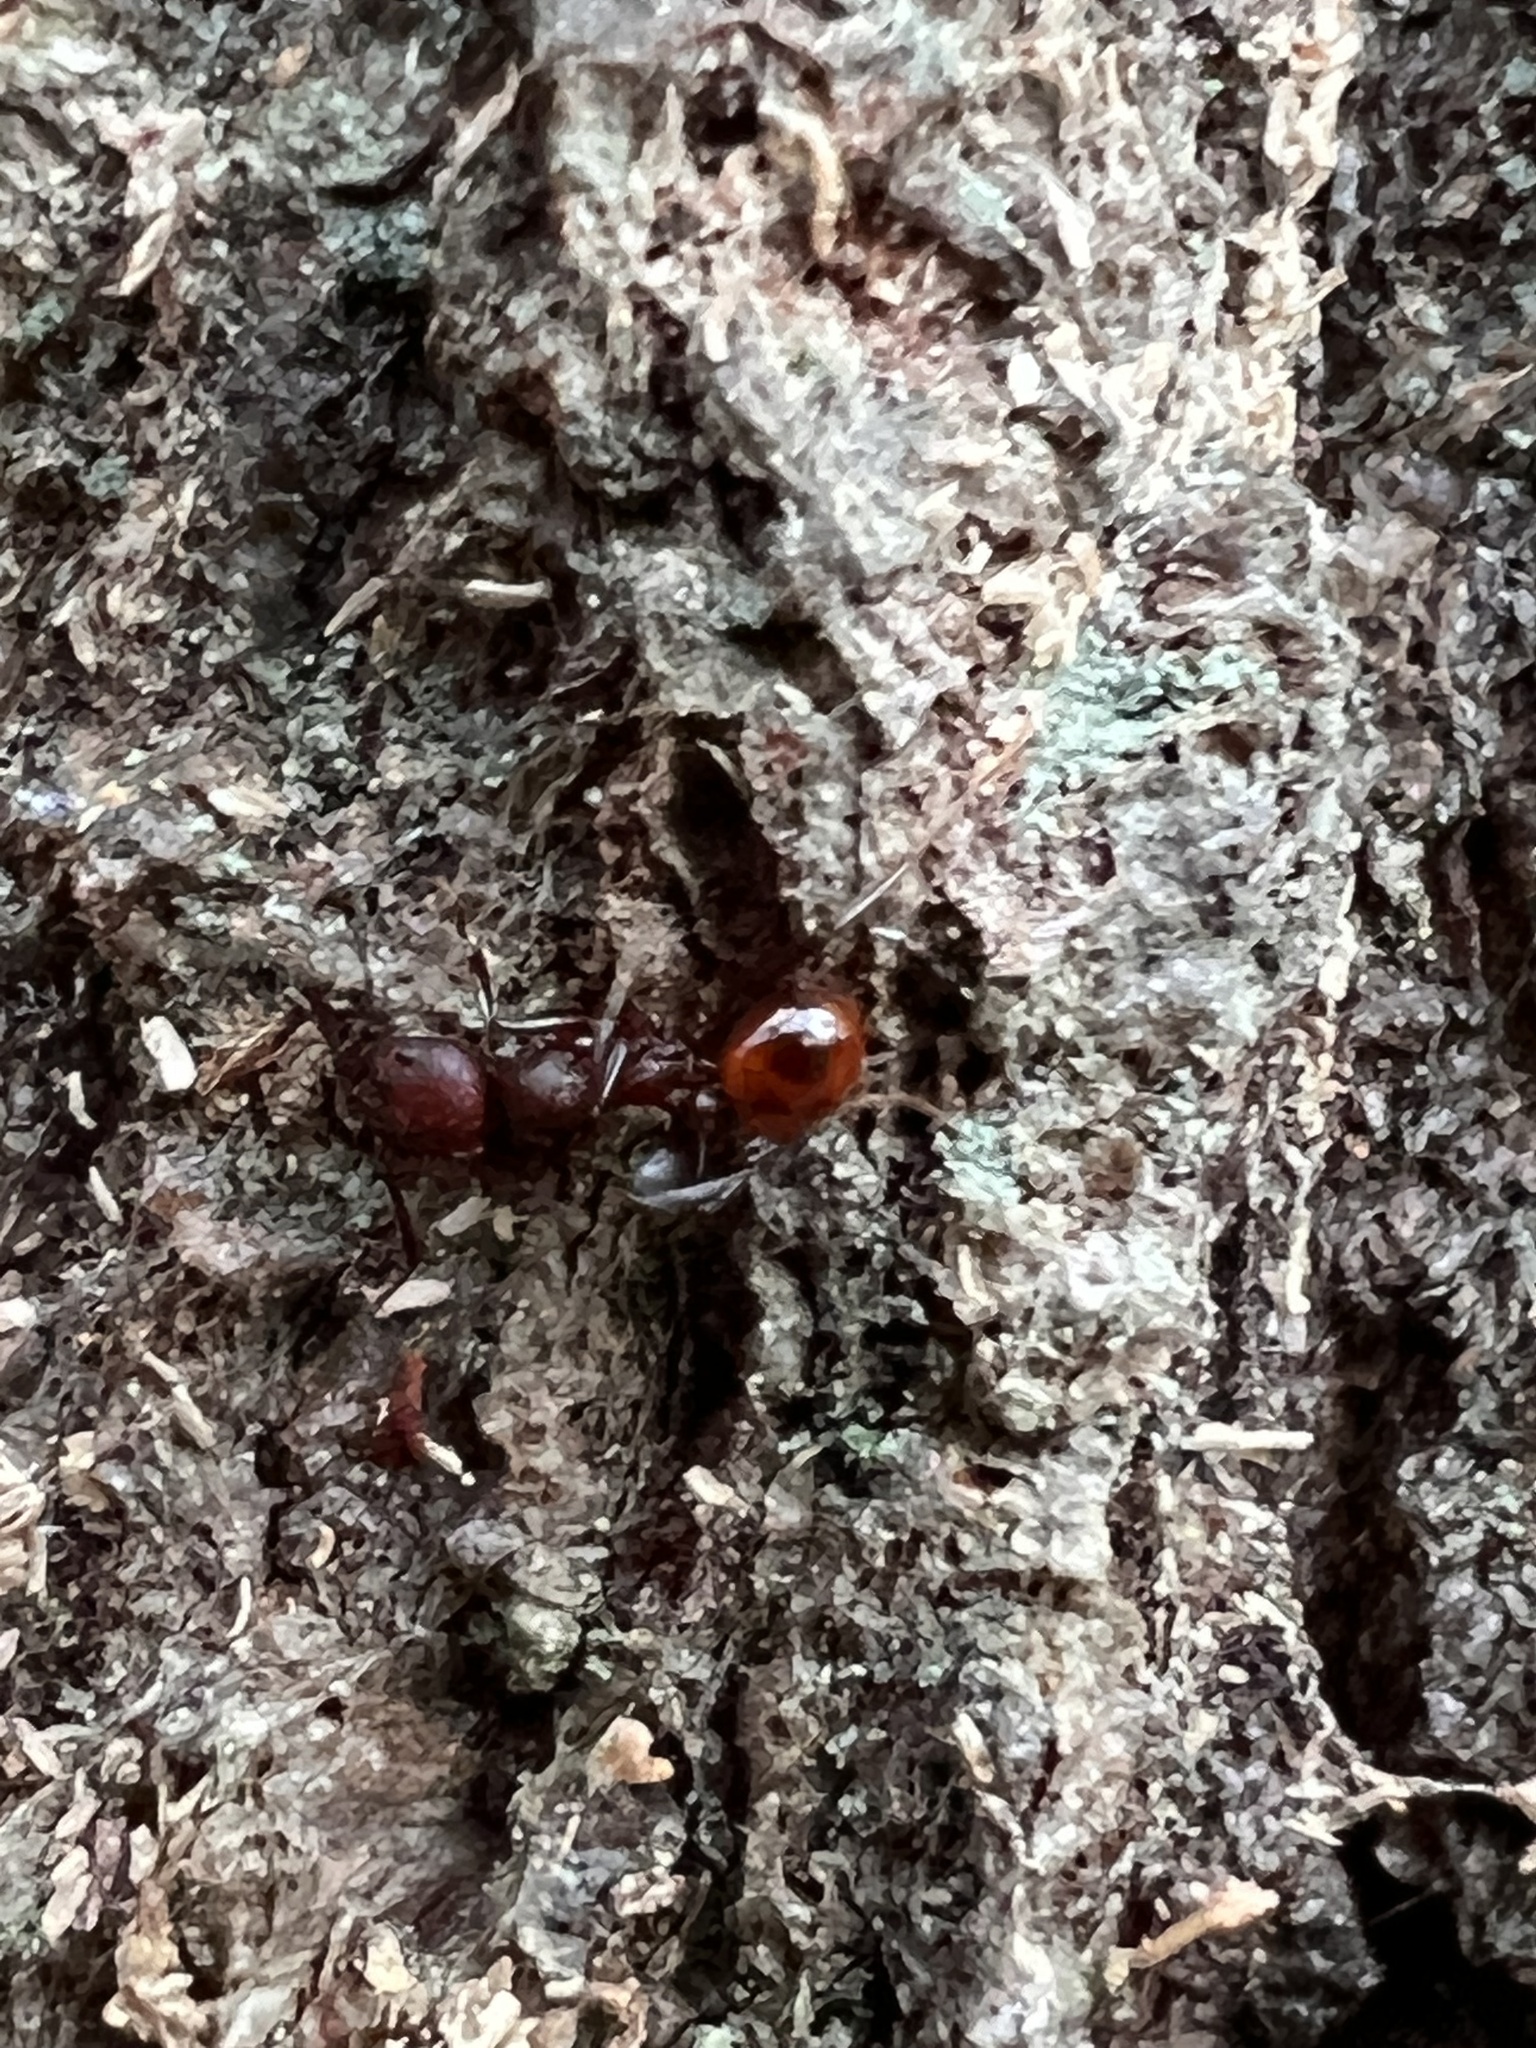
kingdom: Animalia
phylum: Arthropoda
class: Insecta
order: Hymenoptera
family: Formicidae
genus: Aphaenogaster
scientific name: Aphaenogaster tennesseensis
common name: Tennessee thread-waisted ant
